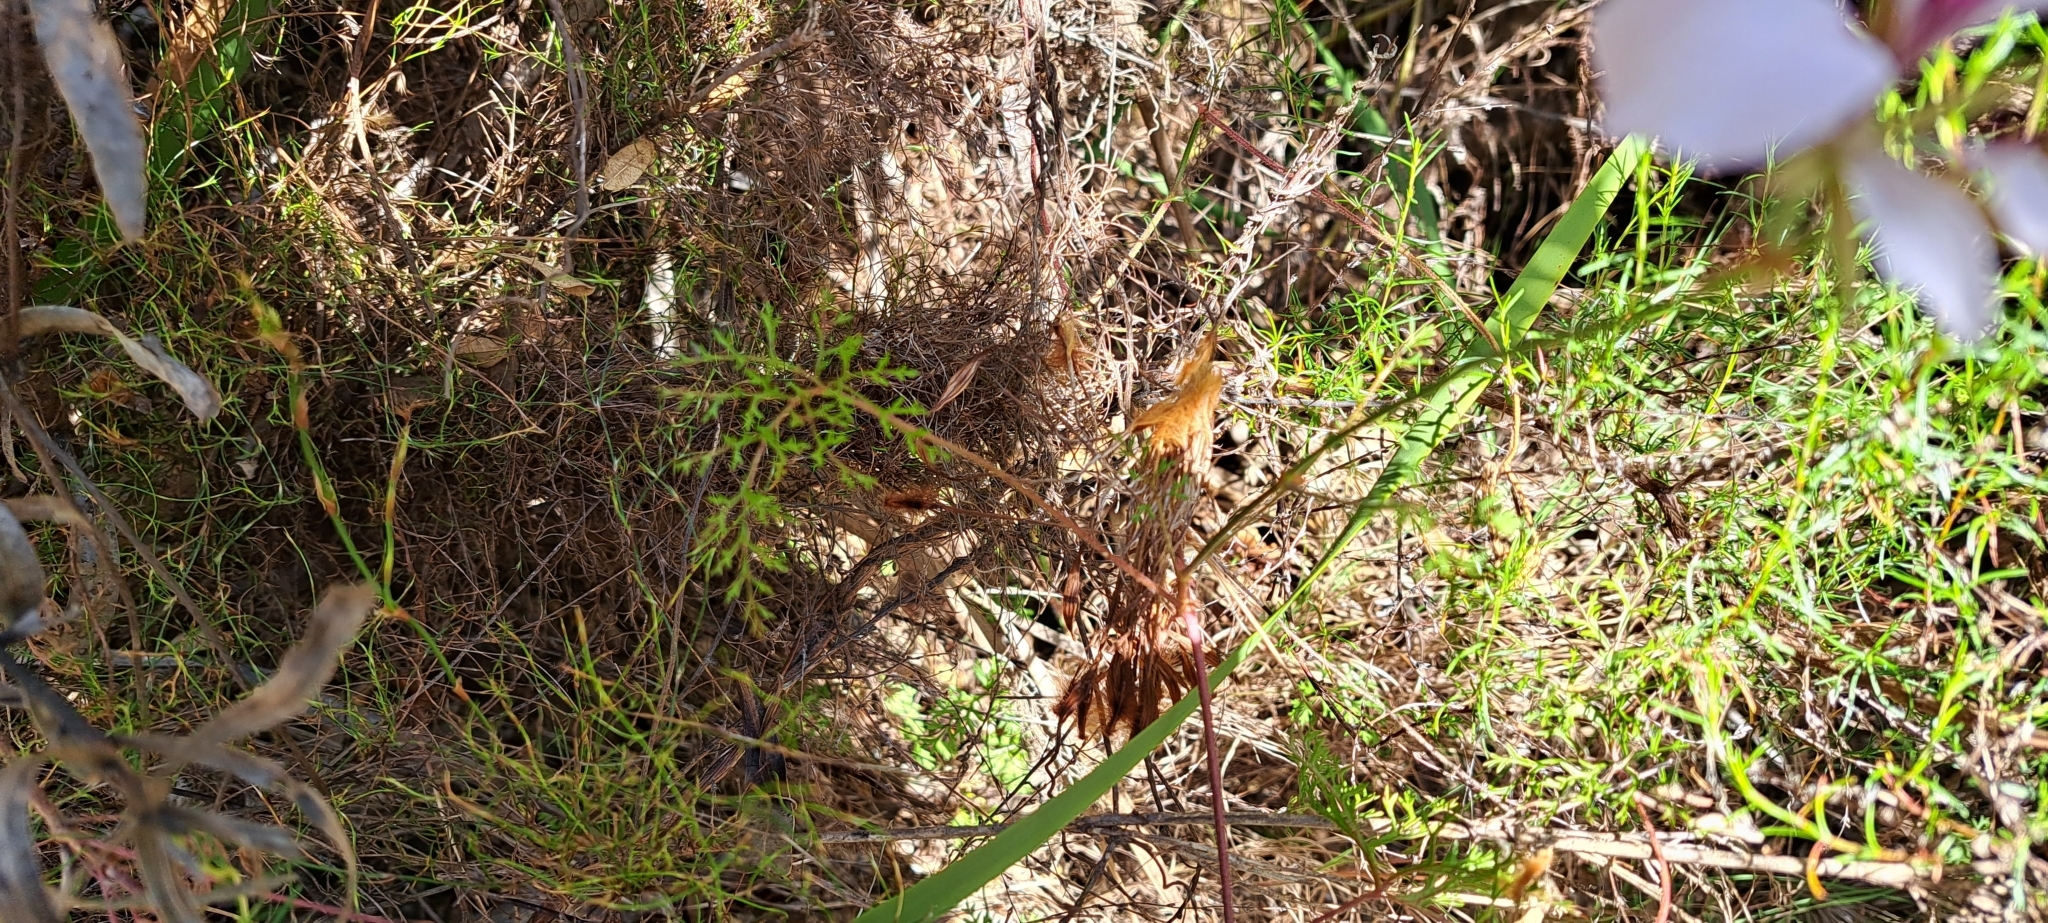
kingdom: Plantae
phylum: Tracheophyta
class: Magnoliopsida
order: Geraniales
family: Geraniaceae
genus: Pelargonium
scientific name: Pelargonium longicaule
